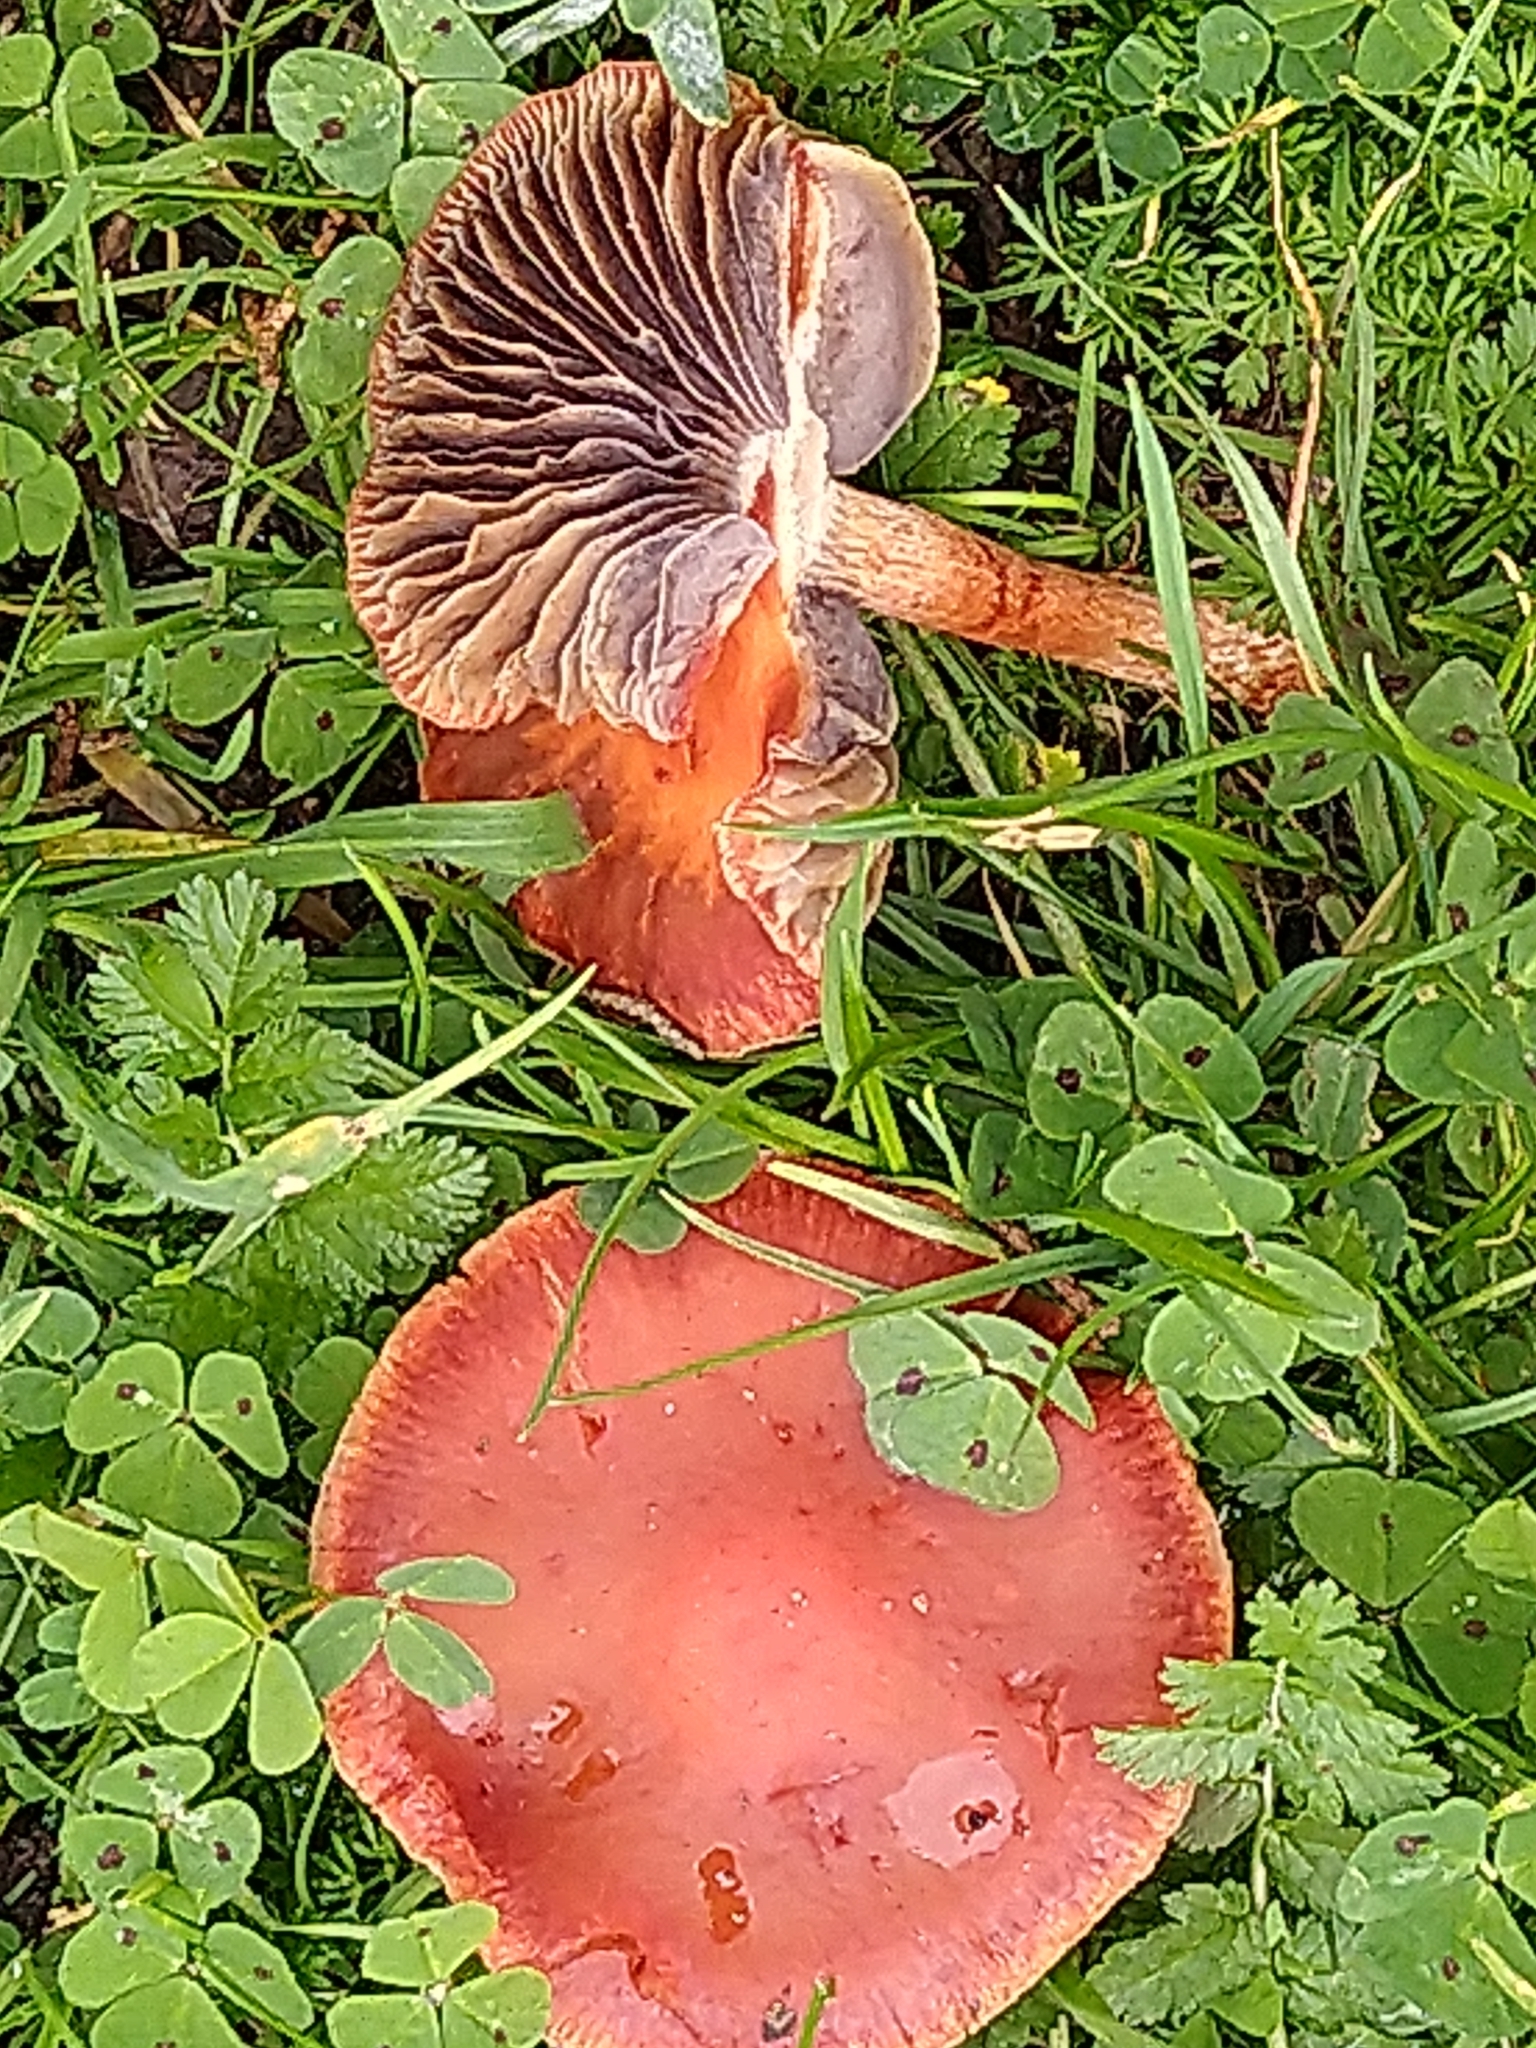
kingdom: Fungi
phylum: Basidiomycota
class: Agaricomycetes
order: Agaricales
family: Strophariaceae
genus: Leratiomyces
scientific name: Leratiomyces ceres
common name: Redlead roundhead
